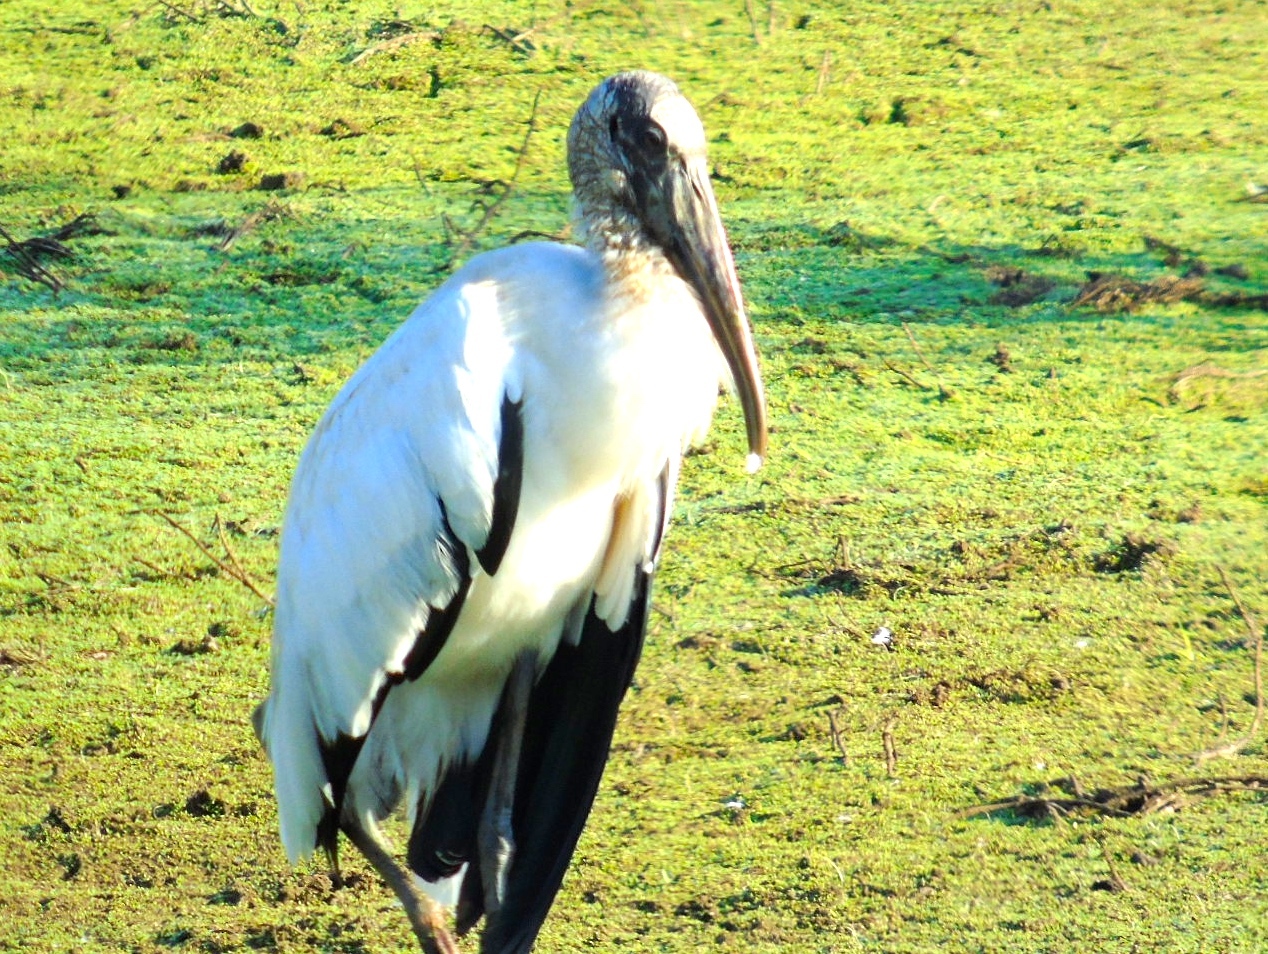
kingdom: Animalia
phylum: Chordata
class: Aves
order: Ciconiiformes
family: Ciconiidae
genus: Mycteria
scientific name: Mycteria americana
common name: Wood stork
